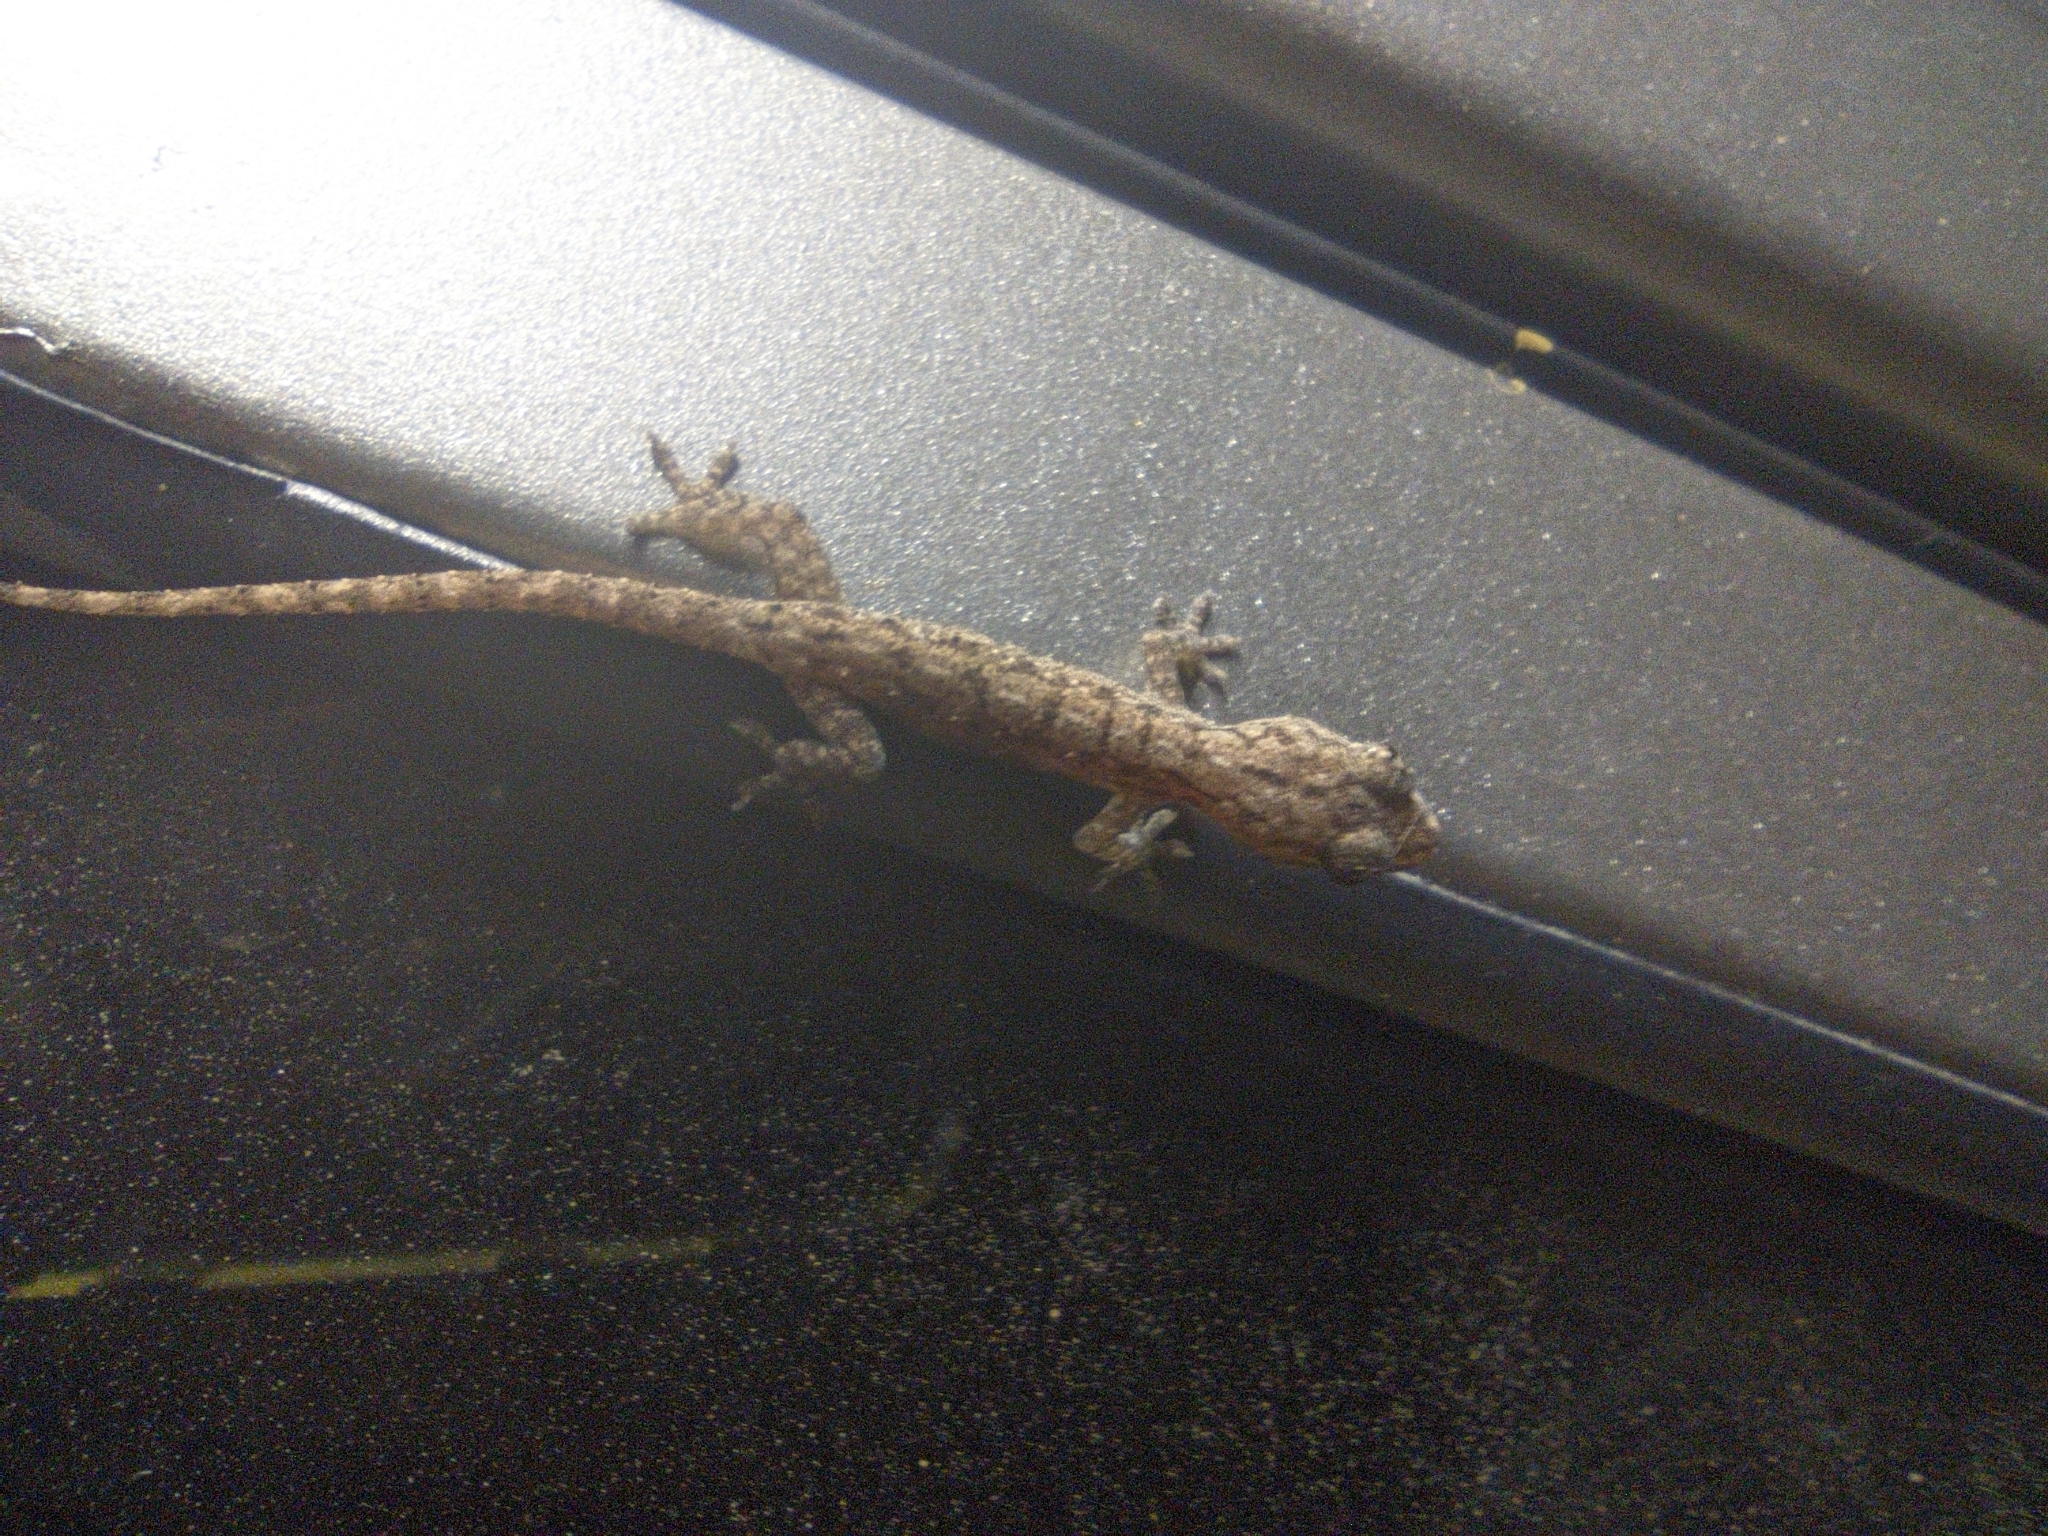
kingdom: Animalia
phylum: Chordata
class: Squamata
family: Gekkonidae
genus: Hemidactylus
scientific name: Hemidactylus frenatus
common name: Common house gecko
